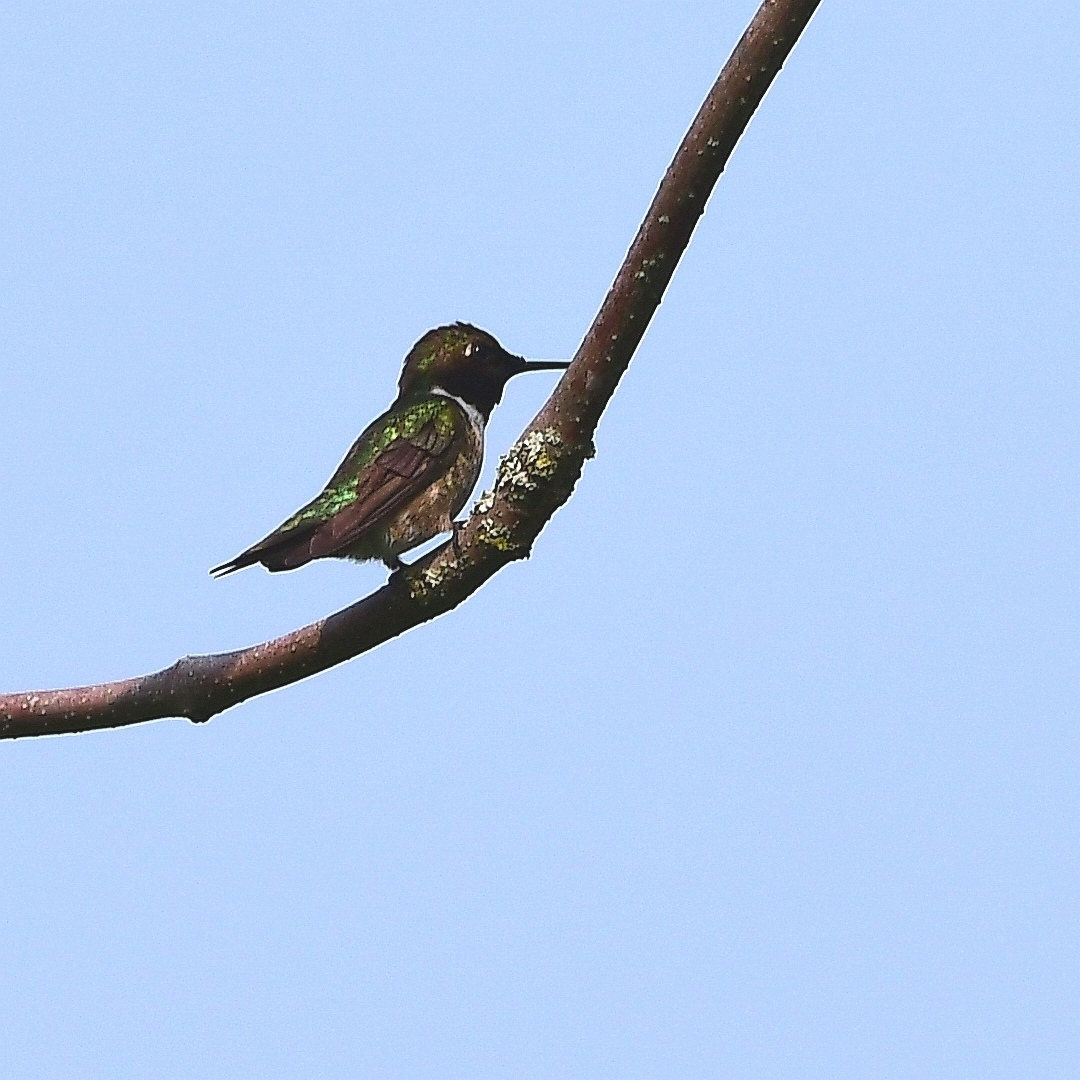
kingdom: Animalia
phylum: Chordata
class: Aves
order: Apodiformes
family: Trochilidae
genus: Archilochus
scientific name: Archilochus colubris
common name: Ruby-throated hummingbird
